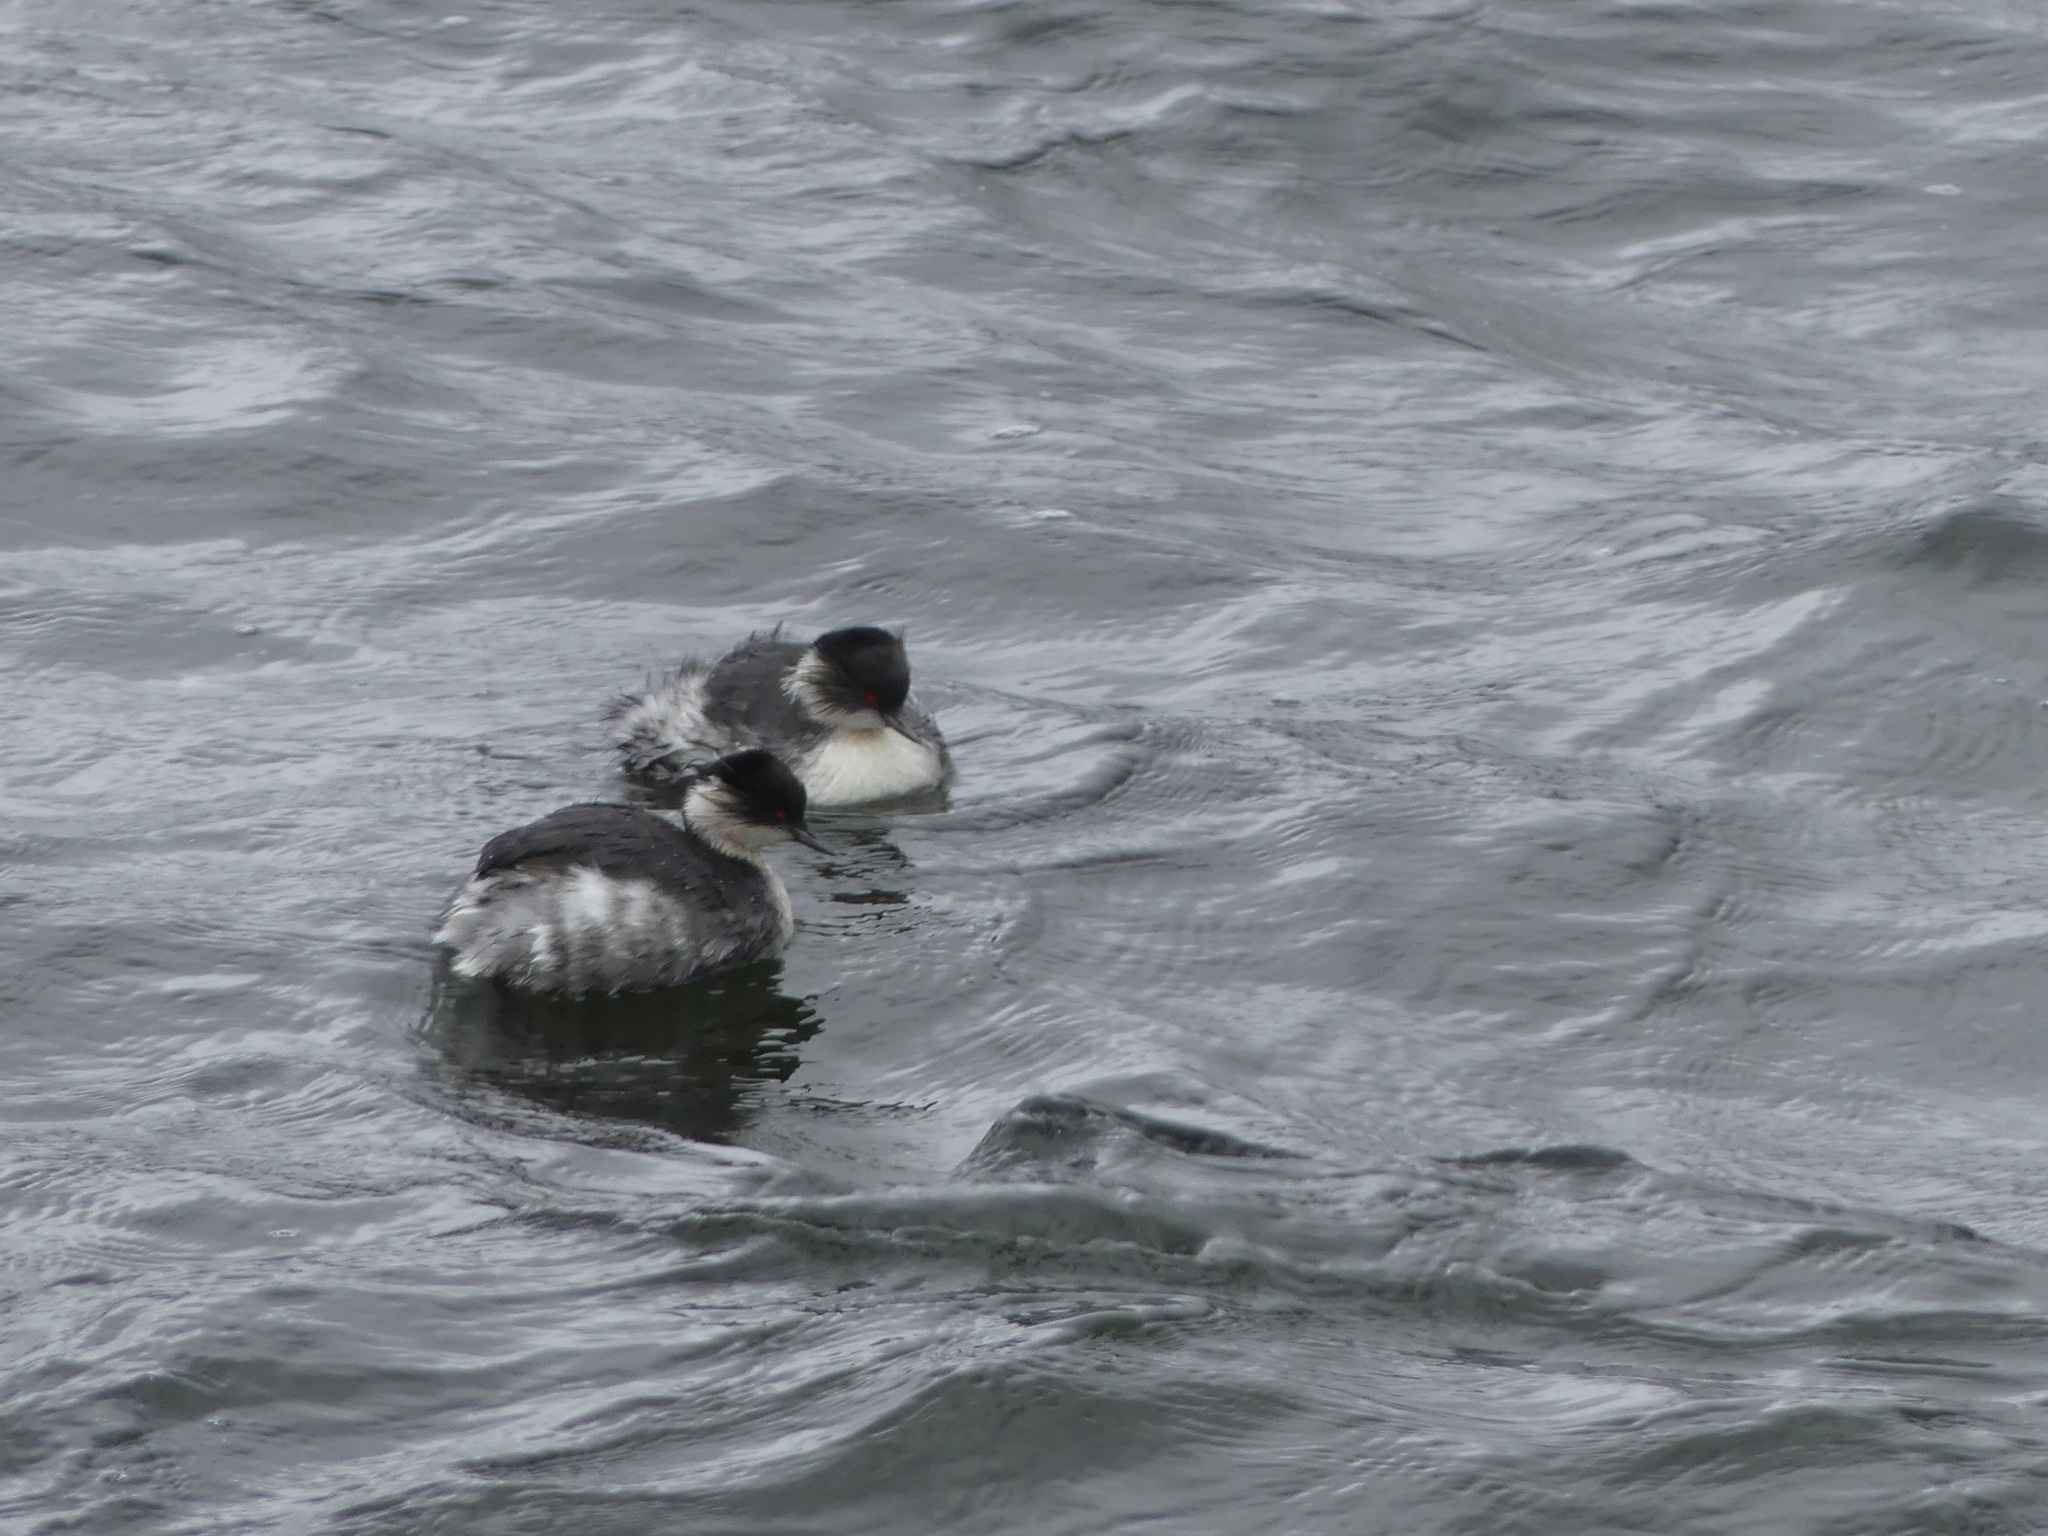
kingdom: Animalia
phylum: Chordata
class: Aves
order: Podicipediformes
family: Podicipedidae
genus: Podiceps
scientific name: Podiceps occipitalis
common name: Silvery grebe
